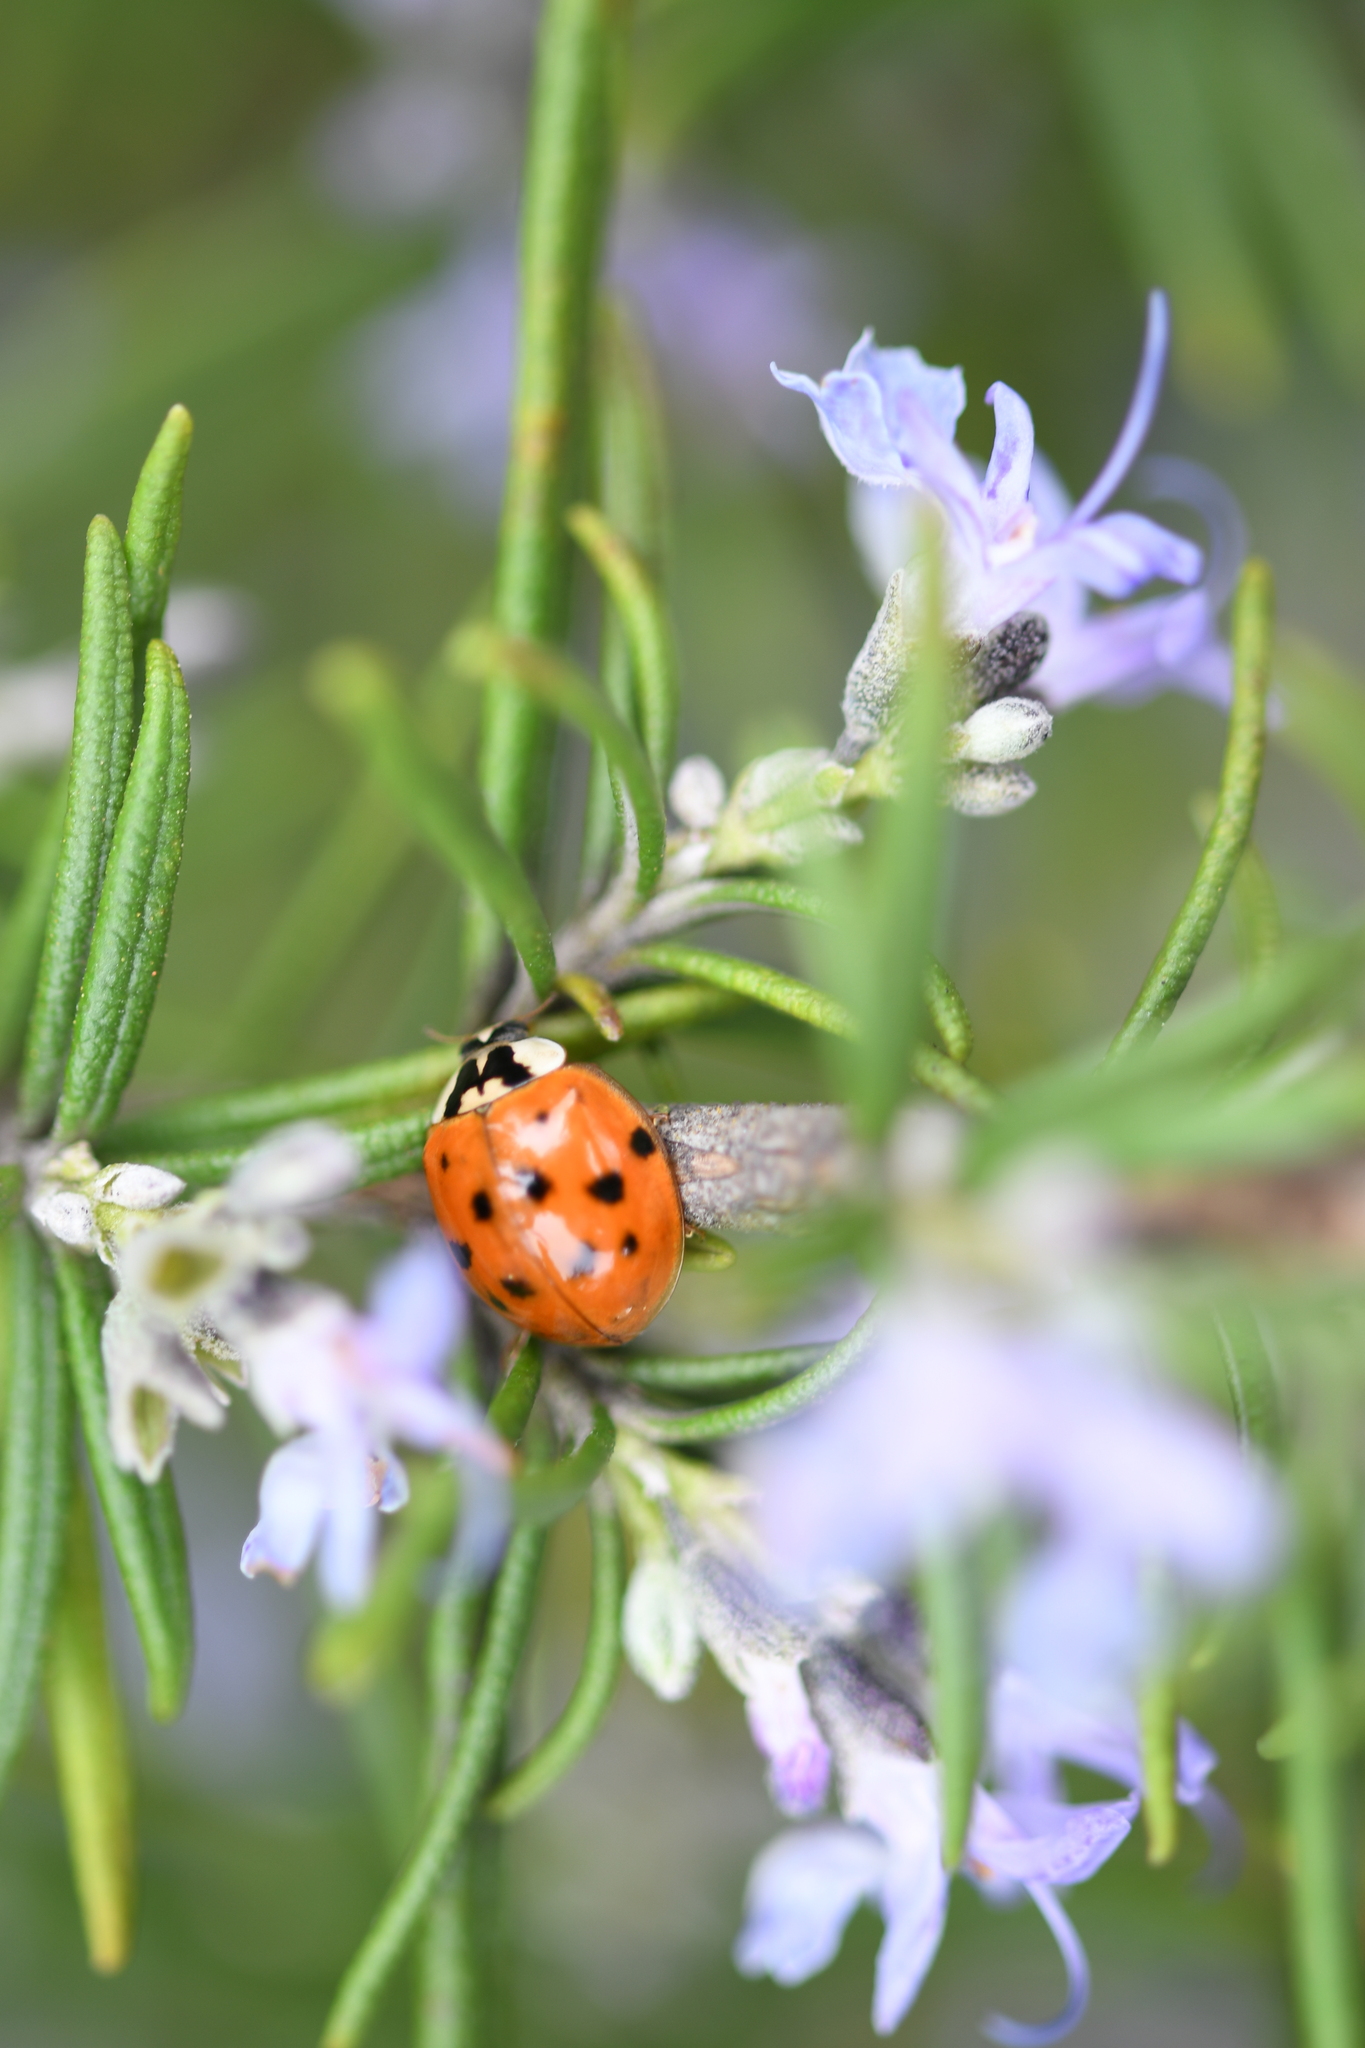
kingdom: Animalia
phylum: Arthropoda
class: Insecta
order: Coleoptera
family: Coccinellidae
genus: Harmonia
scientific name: Harmonia axyridis
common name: Harlequin ladybird
